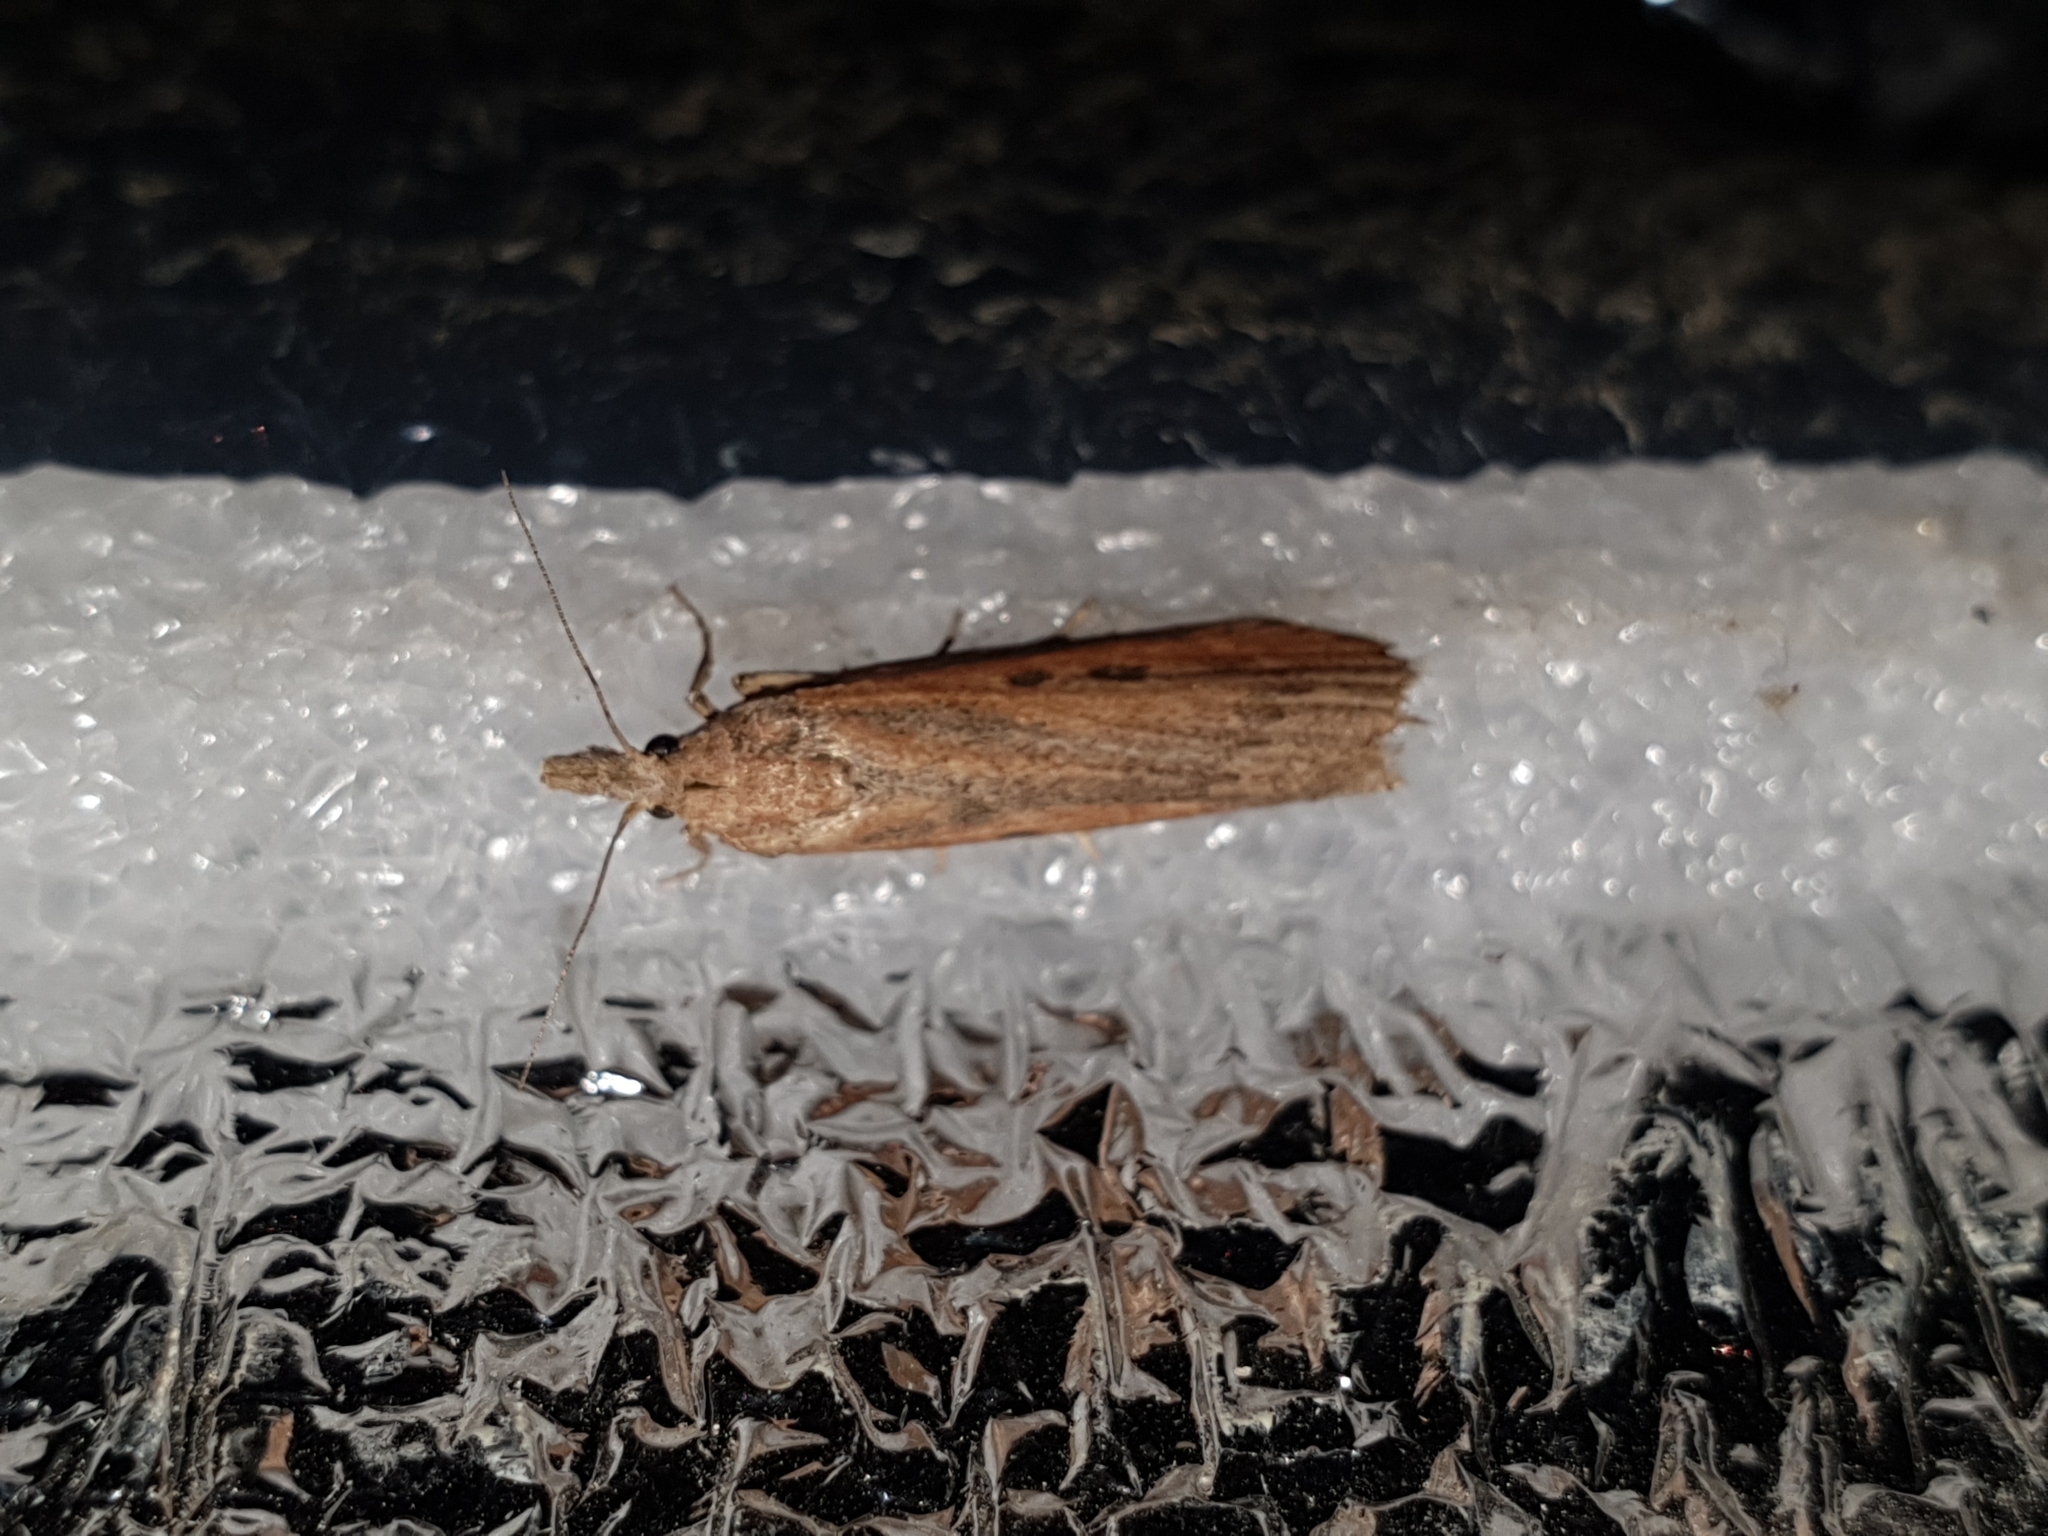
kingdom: Animalia
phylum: Arthropoda
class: Insecta
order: Lepidoptera
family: Pyralidae
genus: Aphomia
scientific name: Aphomia zelleri
